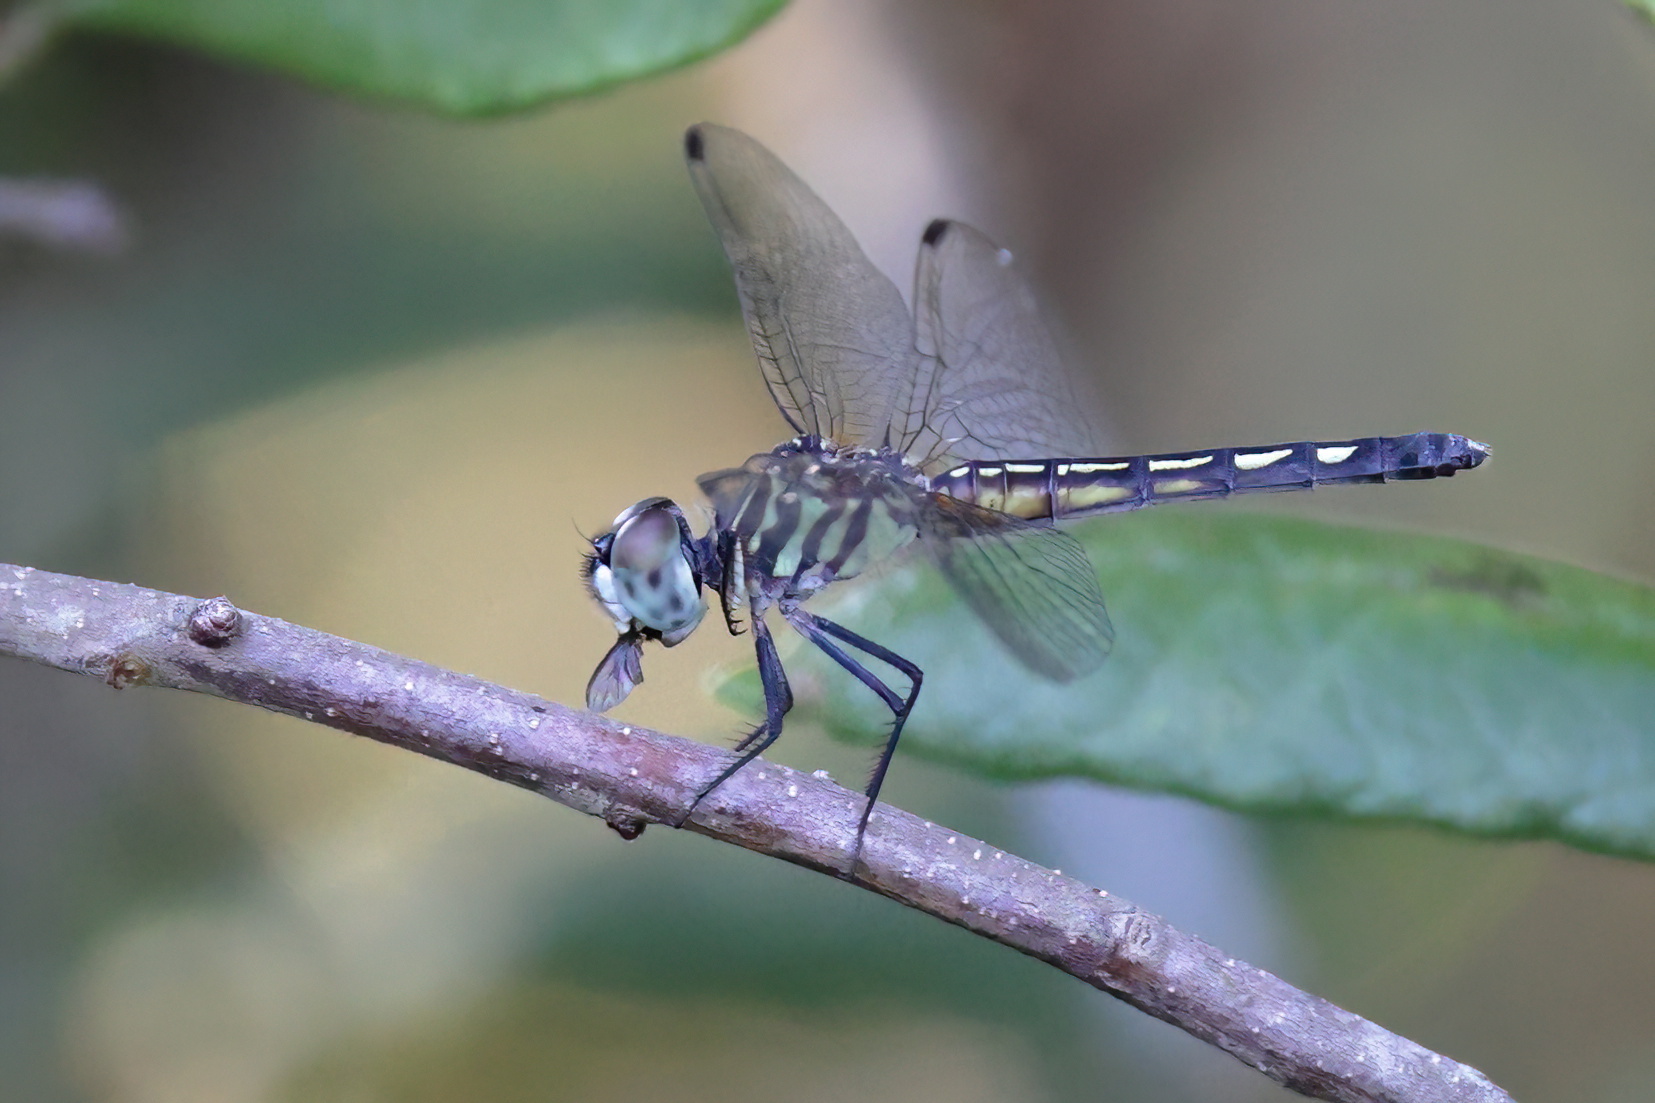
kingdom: Animalia
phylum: Arthropoda
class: Insecta
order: Odonata
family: Libellulidae
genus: Pachydiplax
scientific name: Pachydiplax longipennis
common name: Blue dasher
